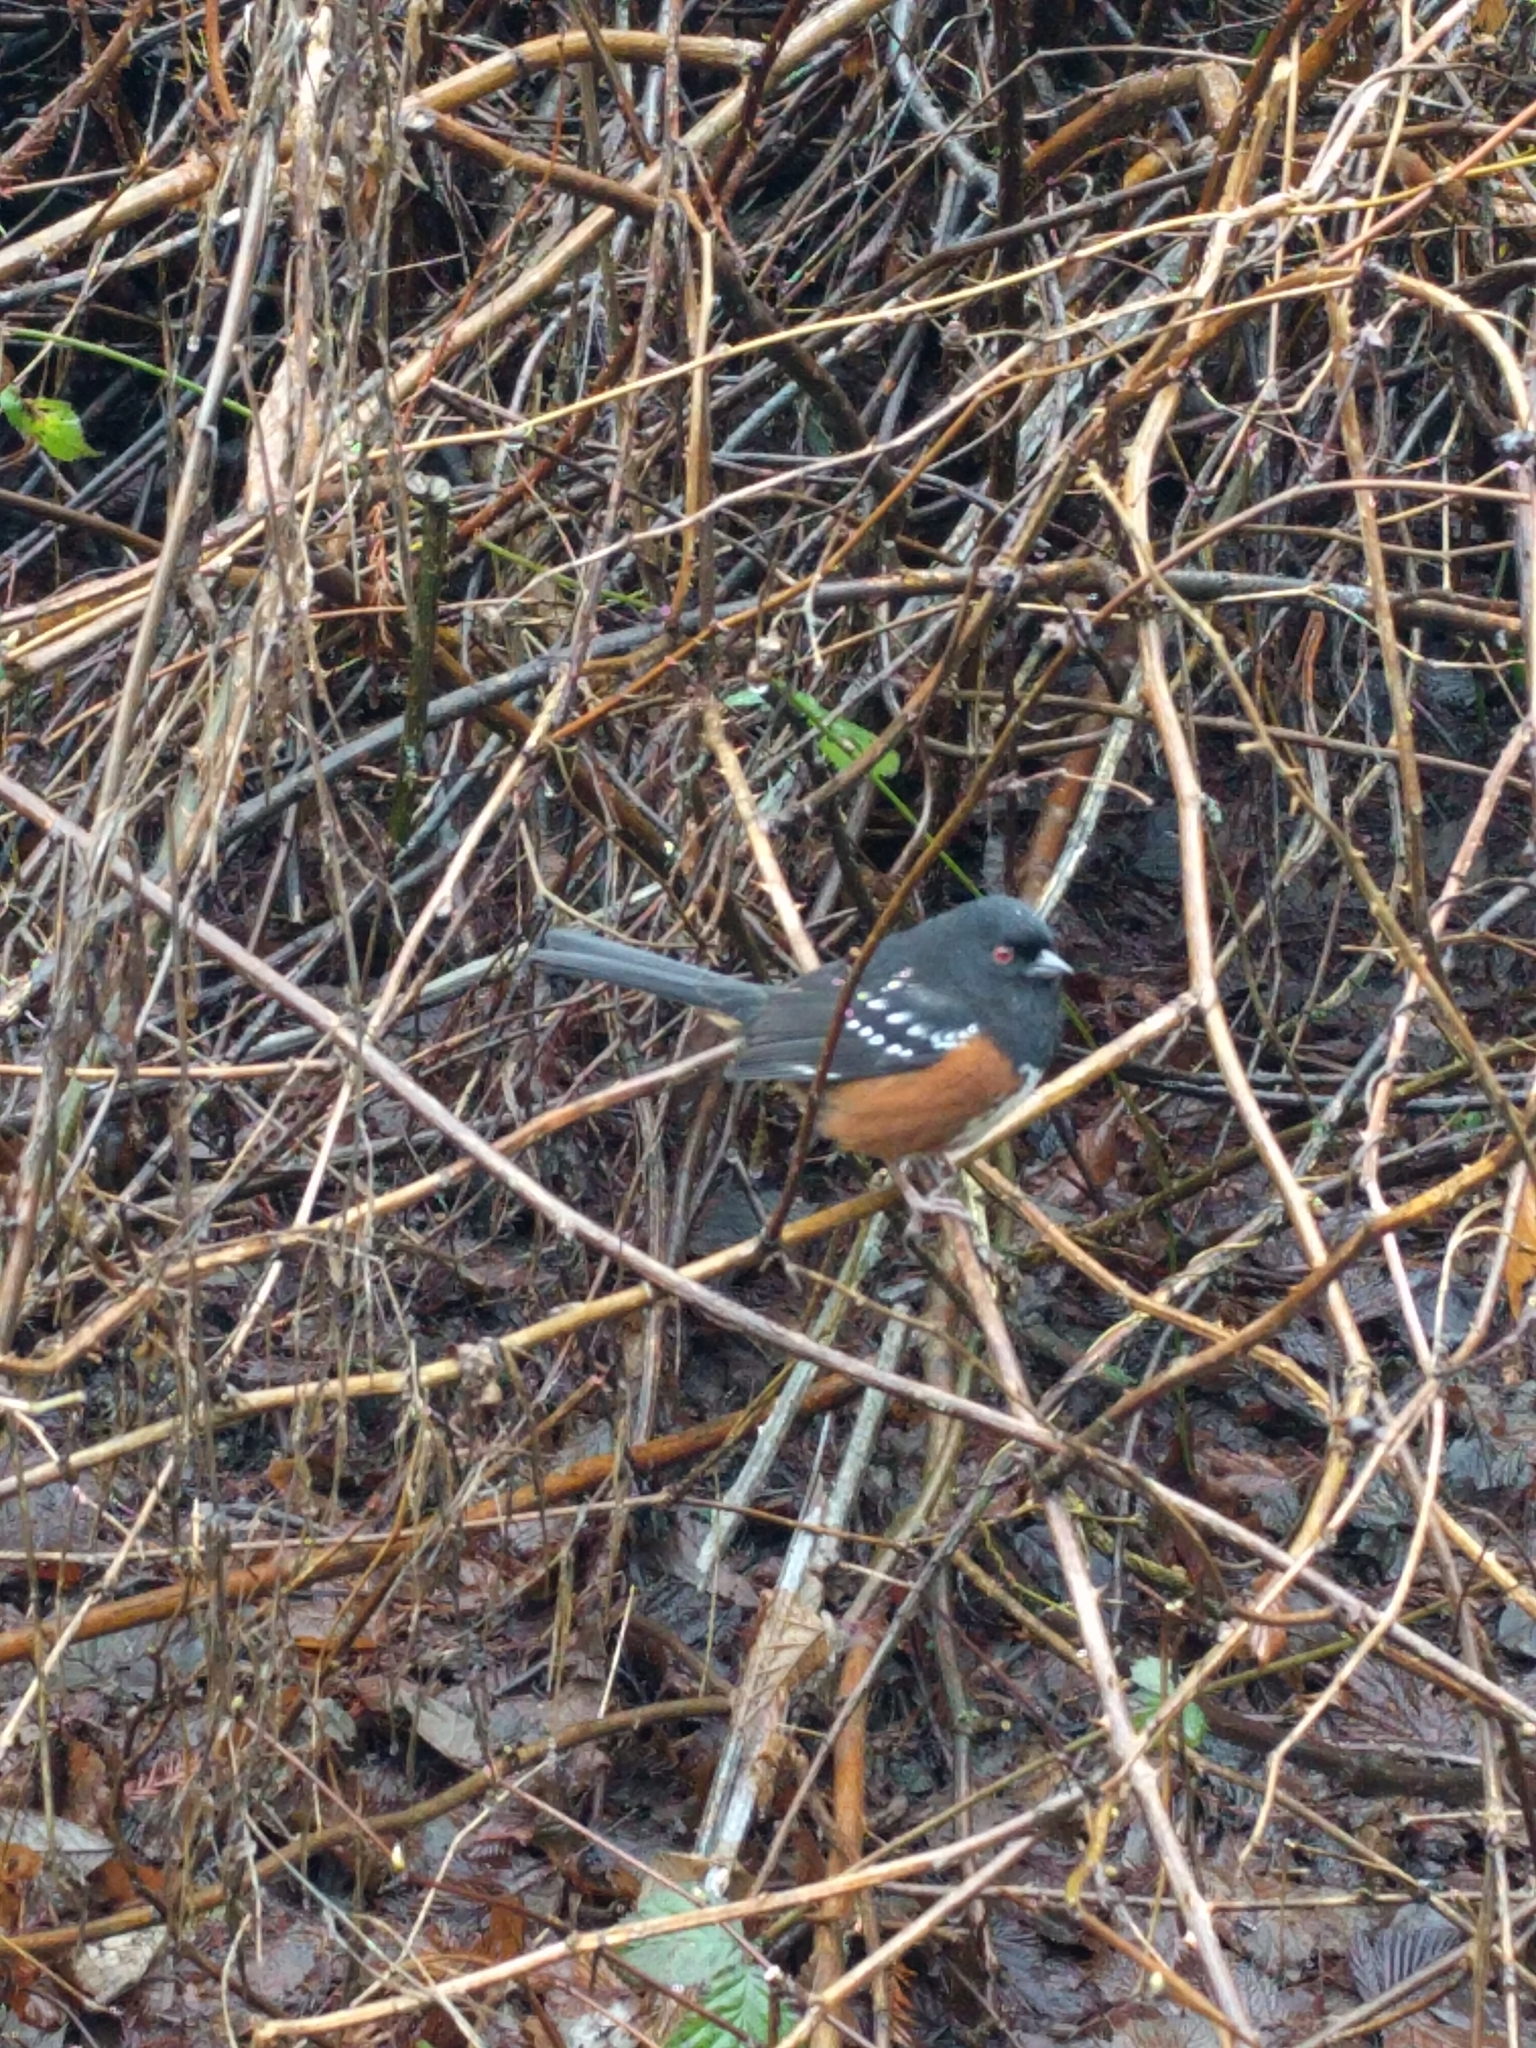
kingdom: Animalia
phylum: Chordata
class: Aves
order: Passeriformes
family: Passerellidae
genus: Pipilo
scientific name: Pipilo maculatus
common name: Spotted towhee
